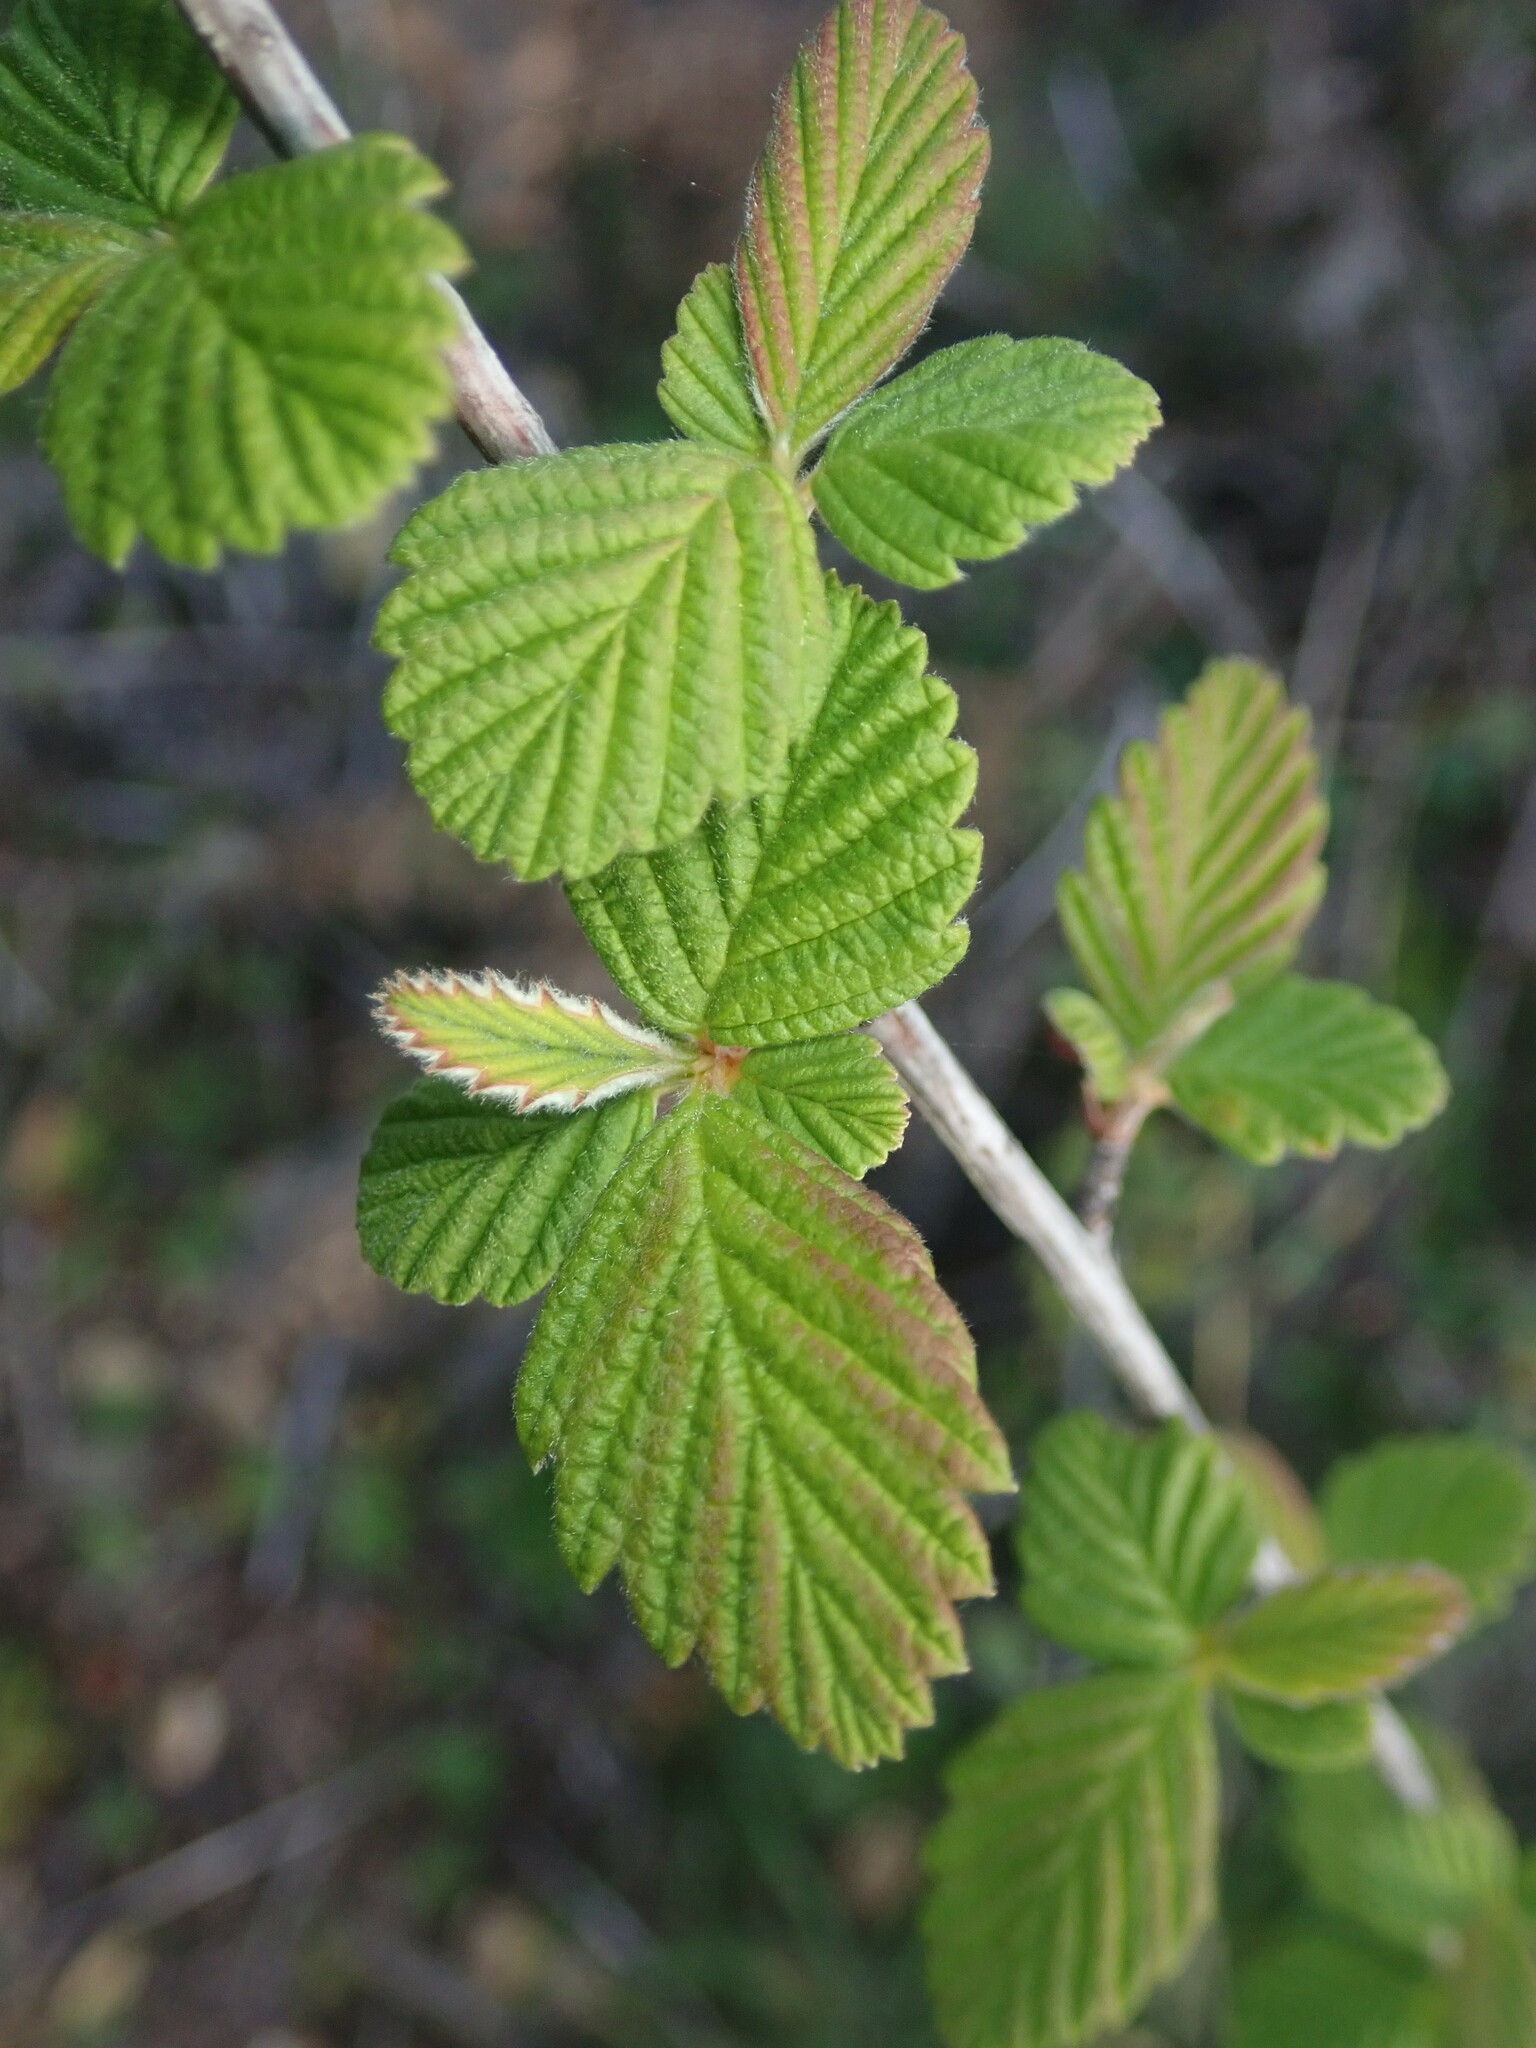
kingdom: Plantae
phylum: Tracheophyta
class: Magnoliopsida
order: Rosales
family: Rosaceae
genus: Holodiscus
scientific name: Holodiscus discolor
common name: Oceanspray
